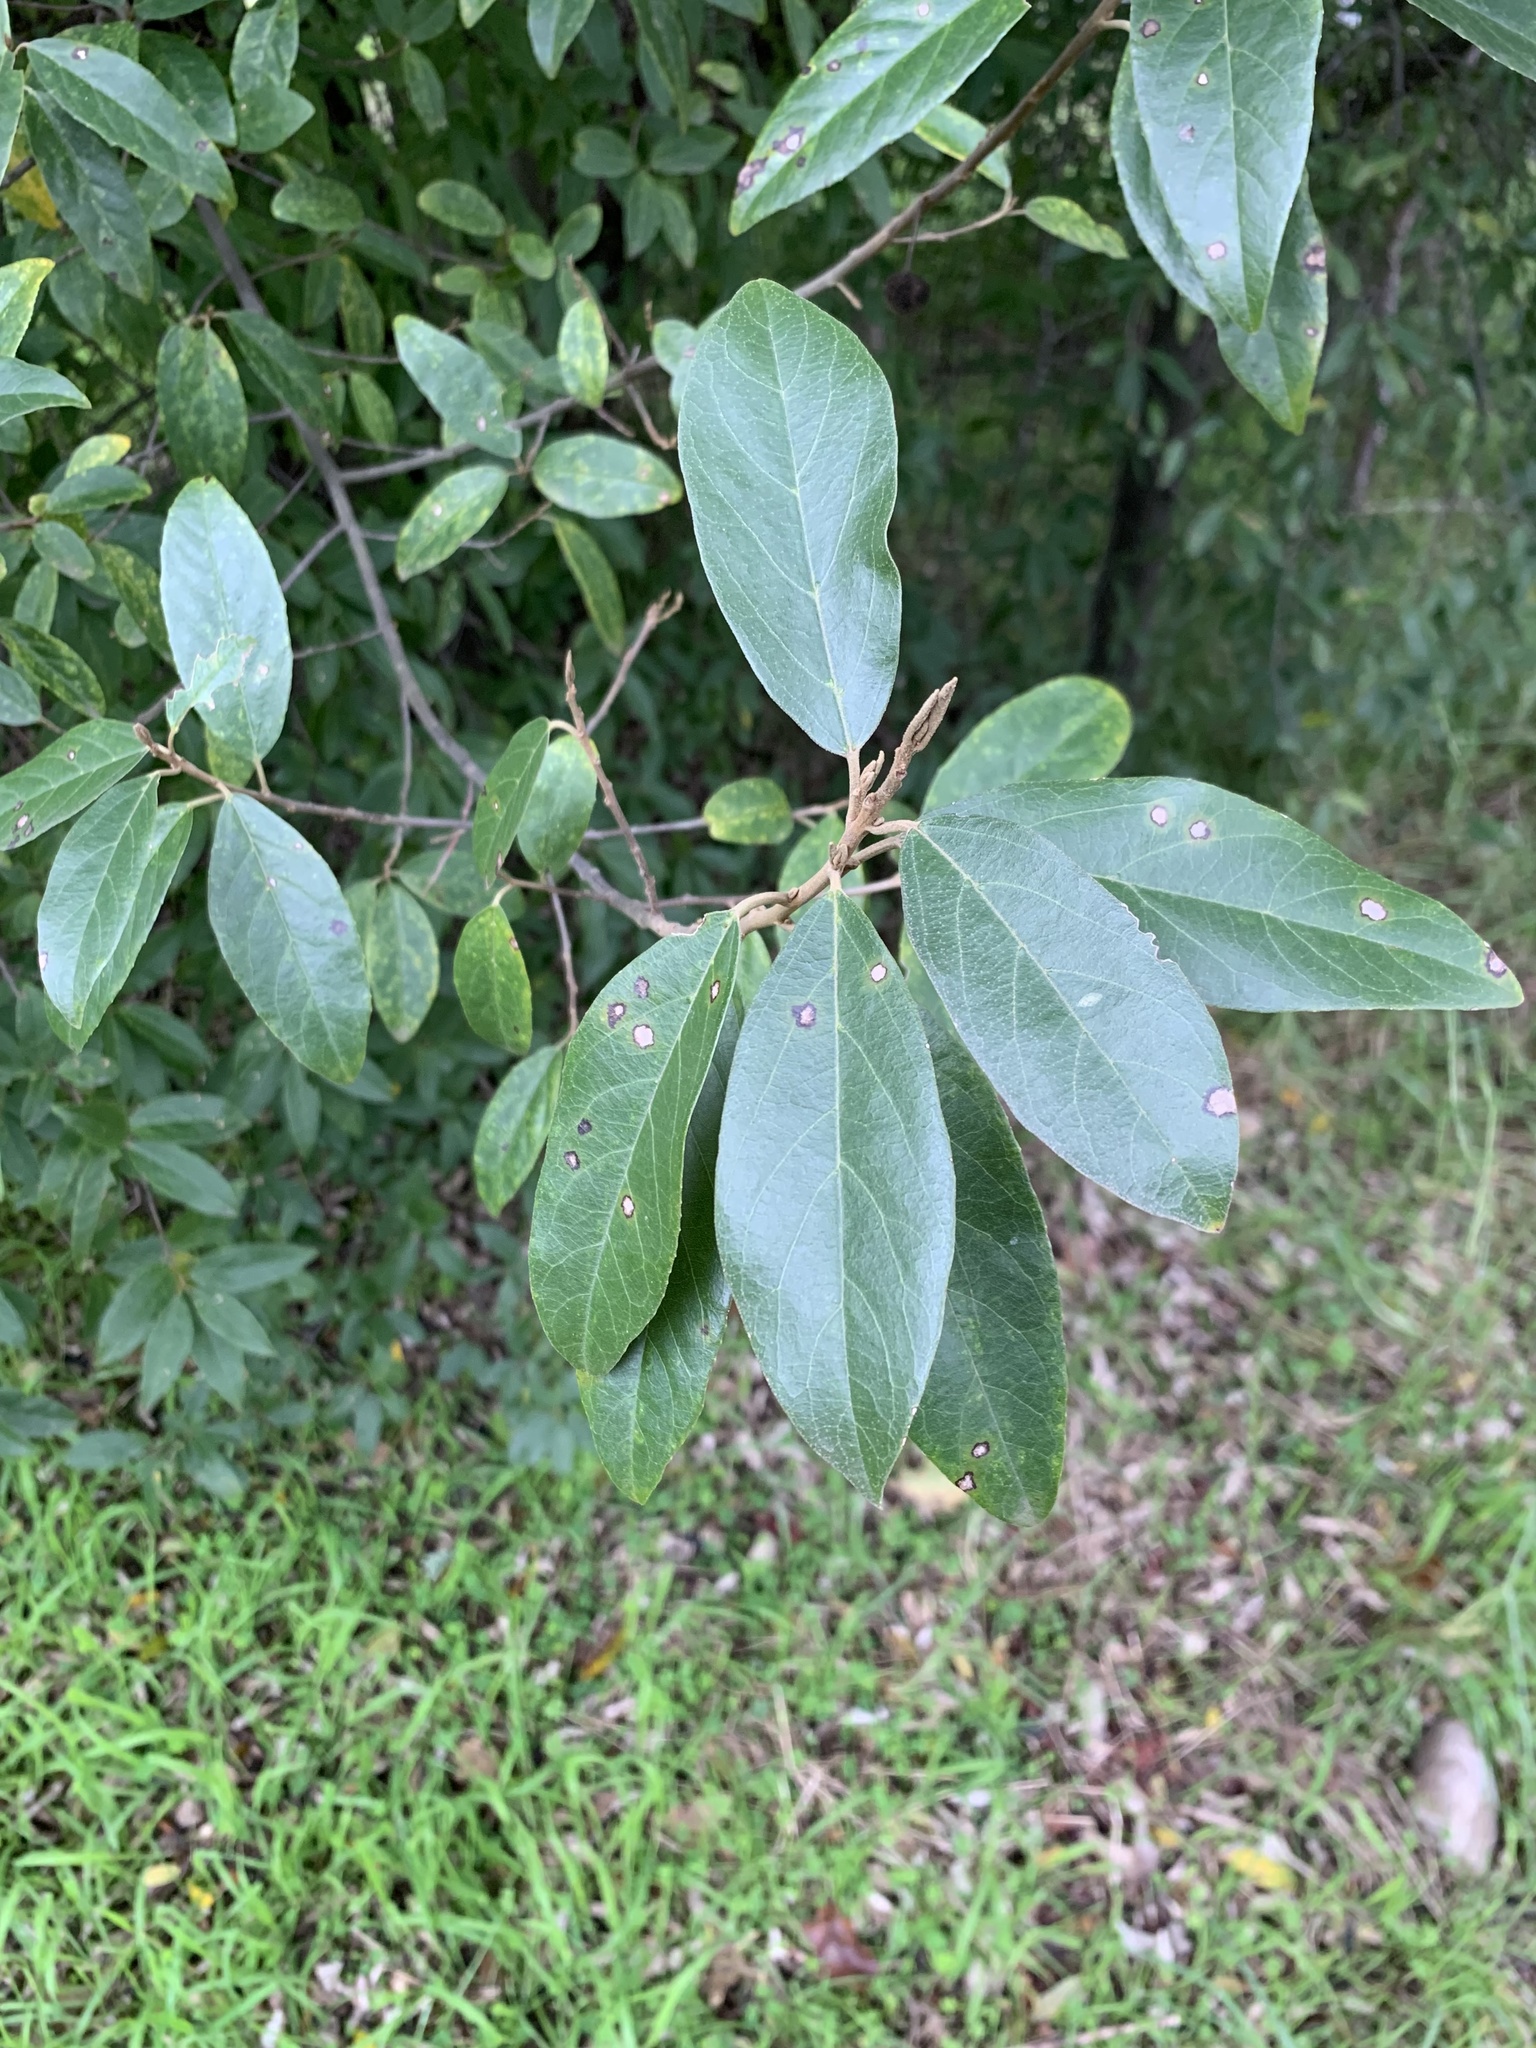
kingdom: Plantae
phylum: Tracheophyta
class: Magnoliopsida
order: Malpighiales
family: Achariaceae
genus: Kiggelaria
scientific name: Kiggelaria africana
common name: Wild peach
